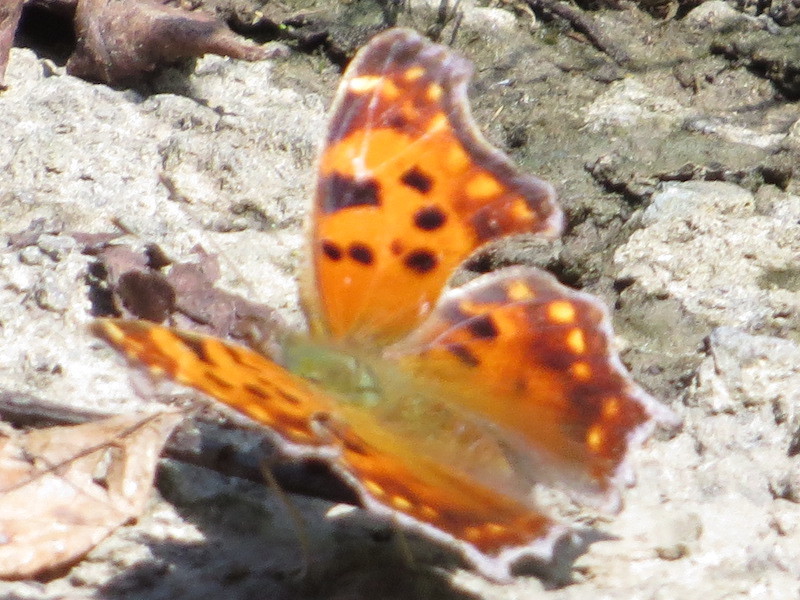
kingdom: Animalia
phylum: Arthropoda
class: Insecta
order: Lepidoptera
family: Nymphalidae
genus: Polygonia
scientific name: Polygonia comma
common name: Eastern comma
